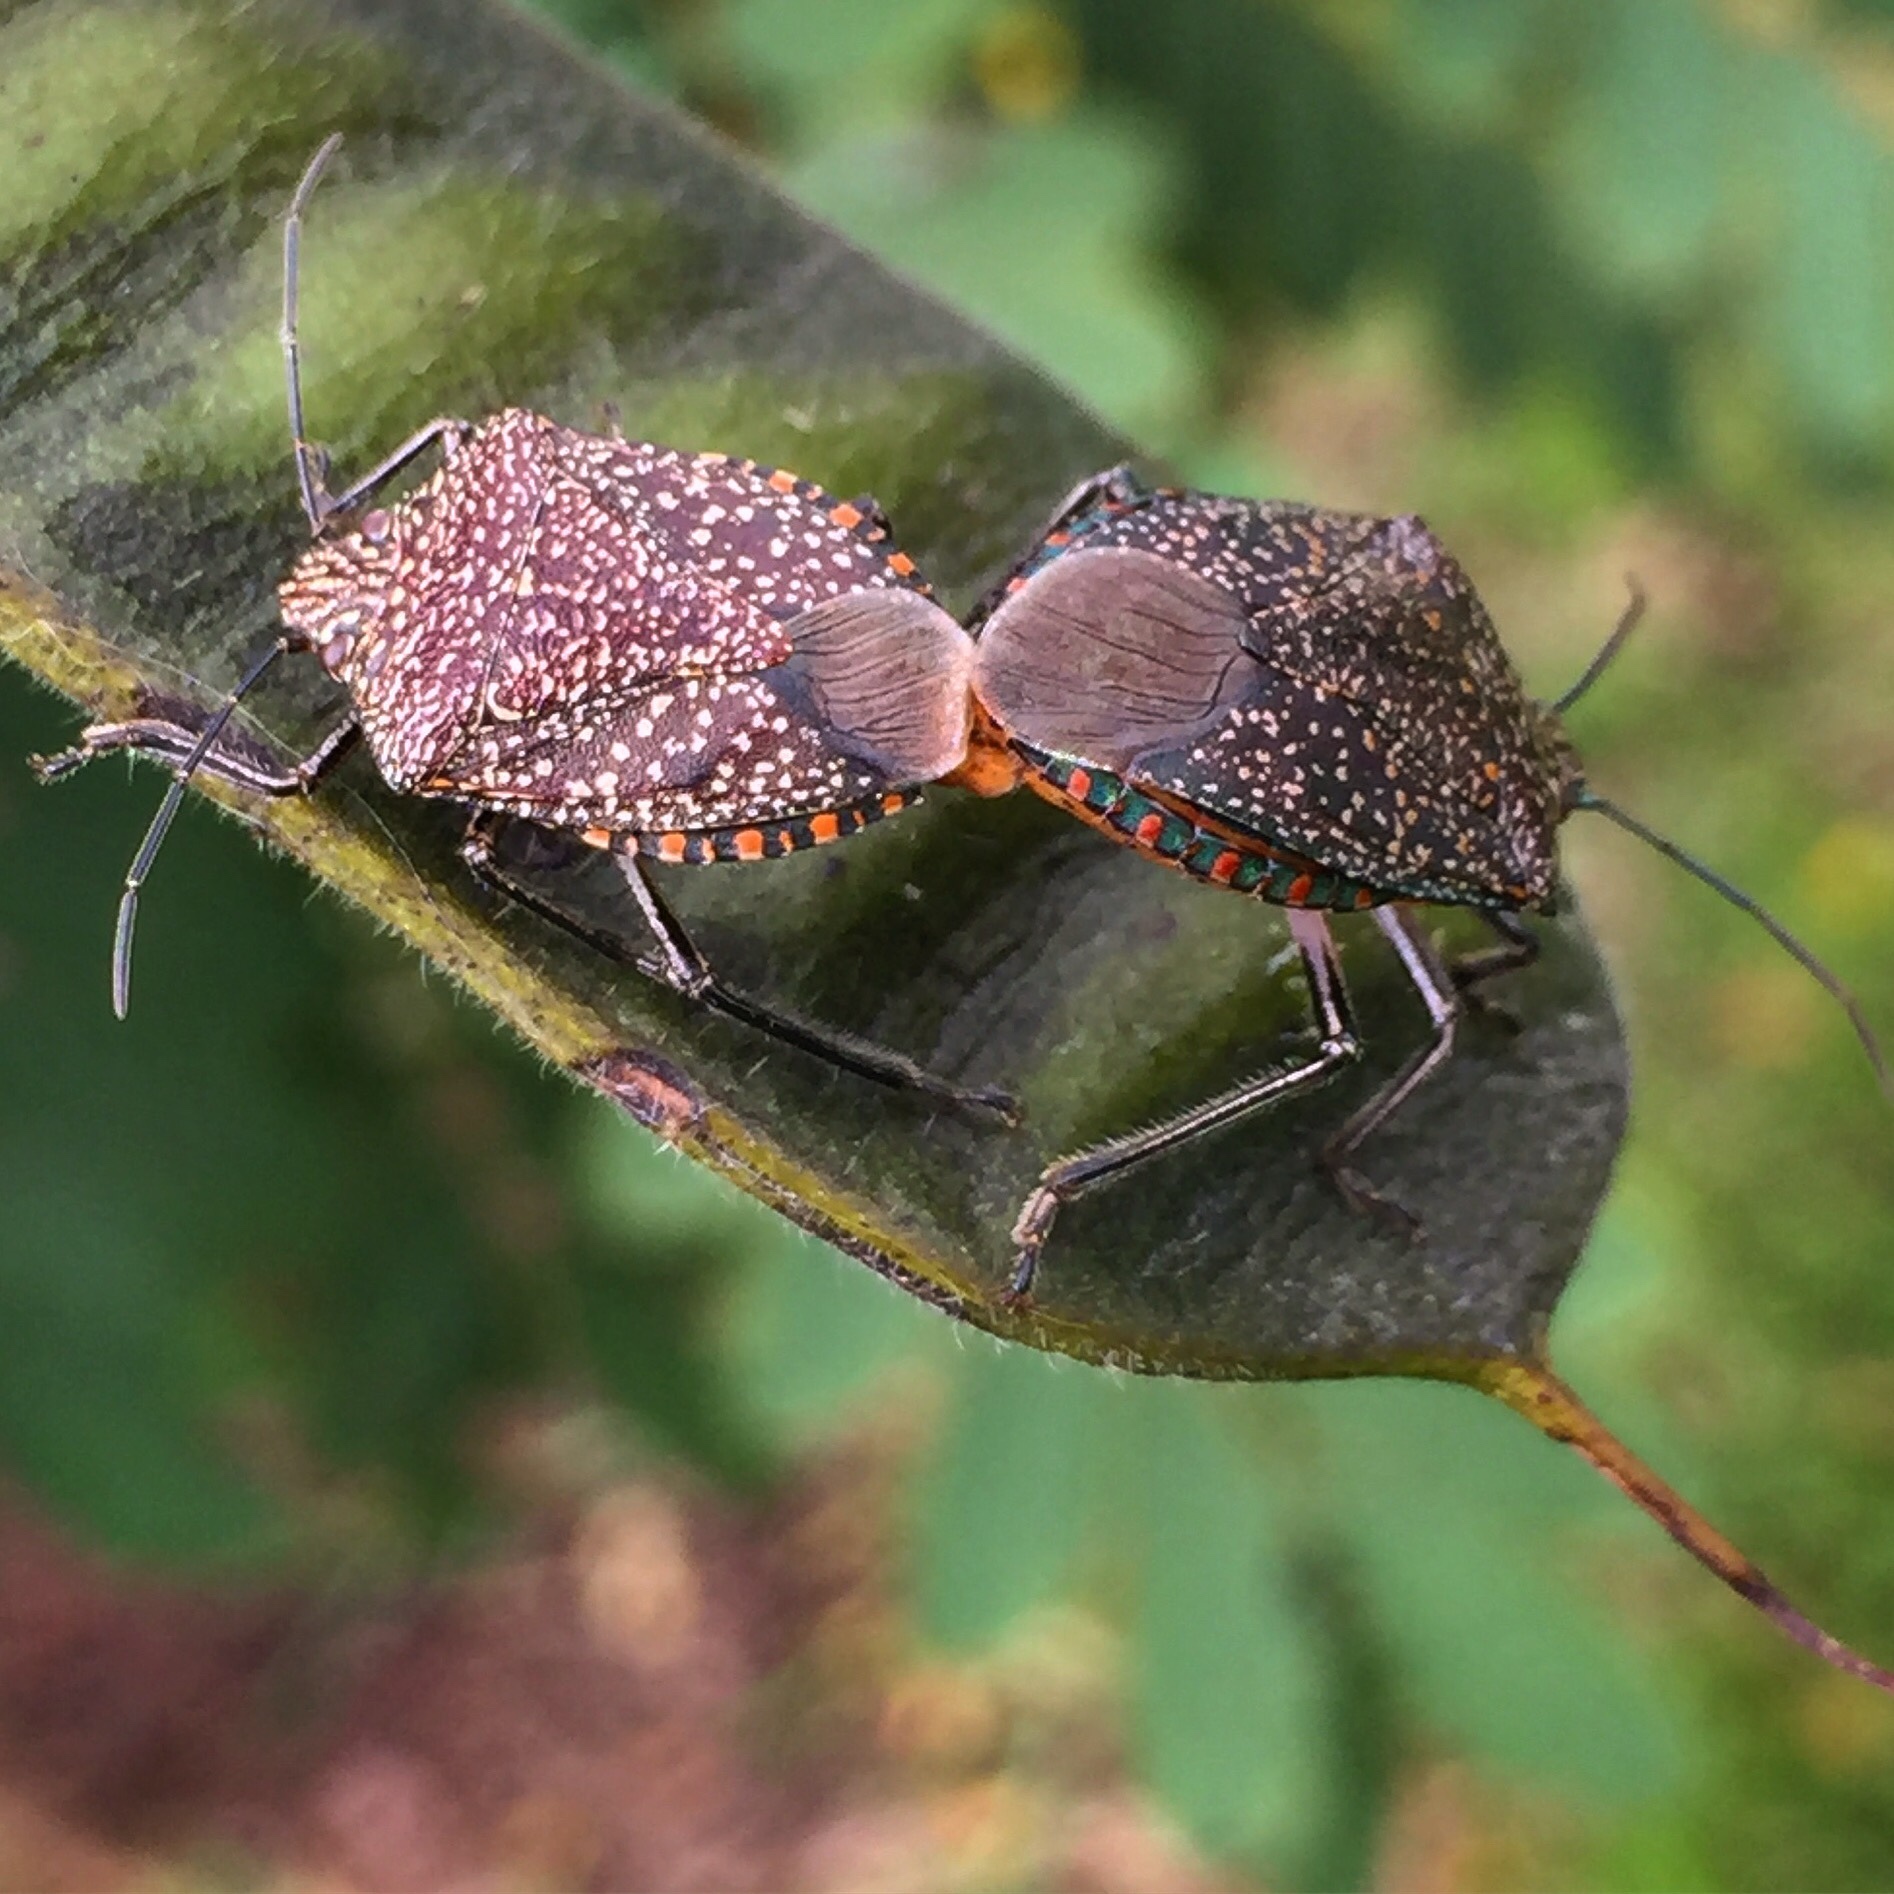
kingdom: Animalia
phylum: Arthropoda
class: Insecta
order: Hemiptera
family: Pentatomidae
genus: Pellaea
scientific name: Pellaea stictica
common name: Stink bug
